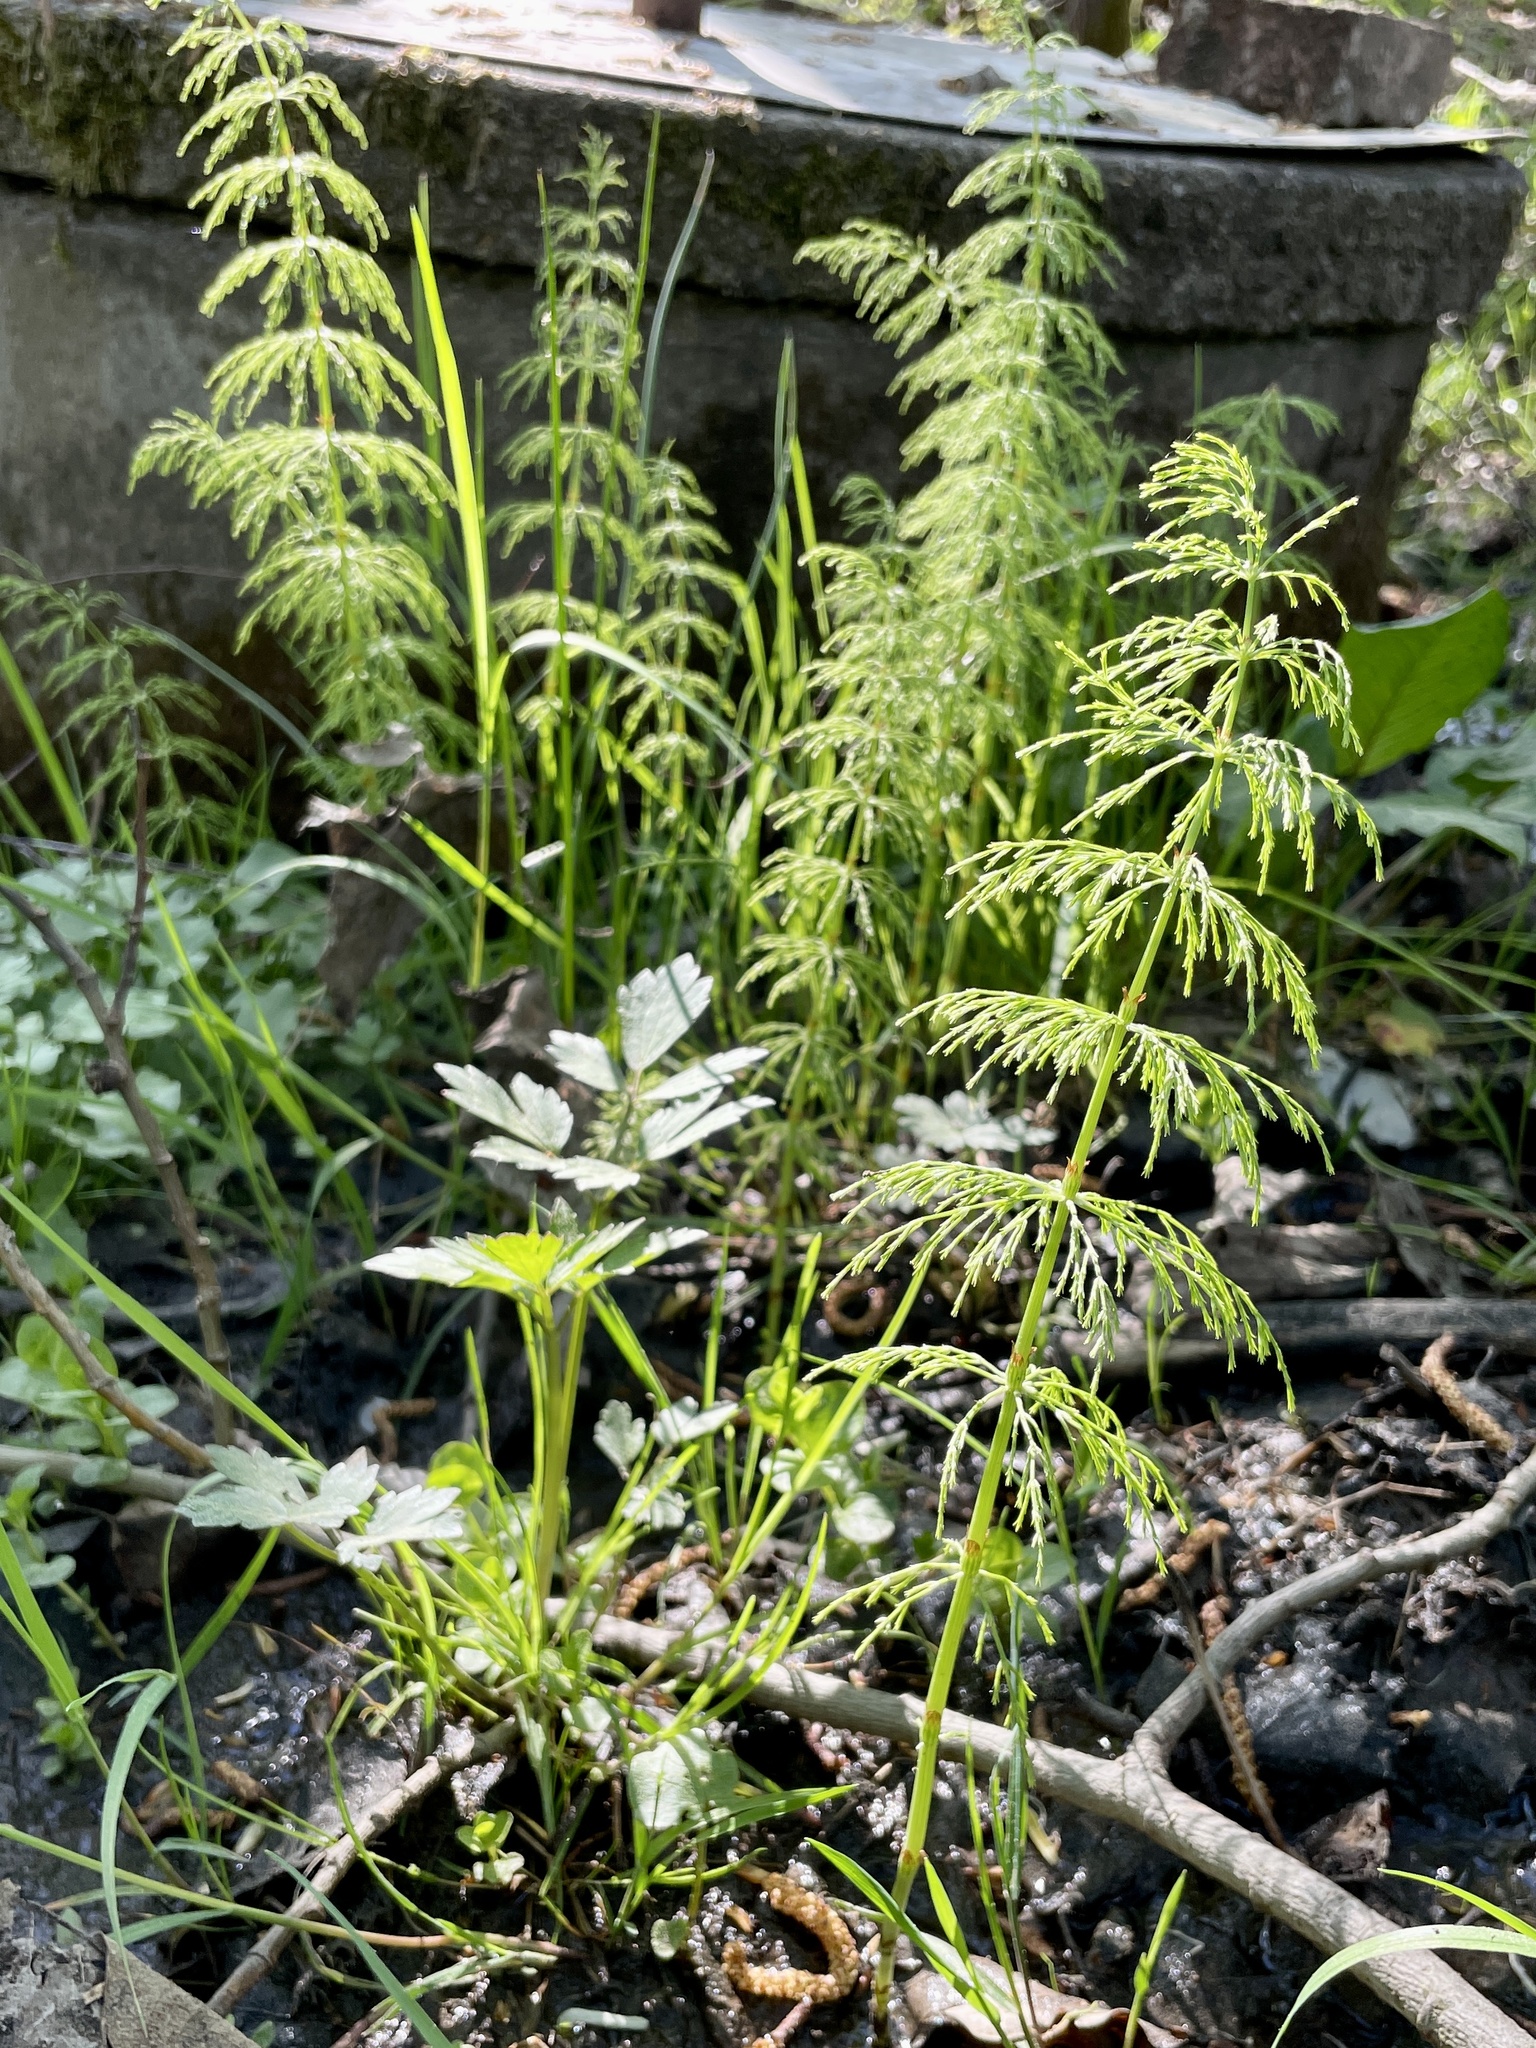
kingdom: Plantae
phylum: Tracheophyta
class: Polypodiopsida
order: Equisetales
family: Equisetaceae
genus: Equisetum
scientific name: Equisetum sylvaticum
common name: Wood horsetail
